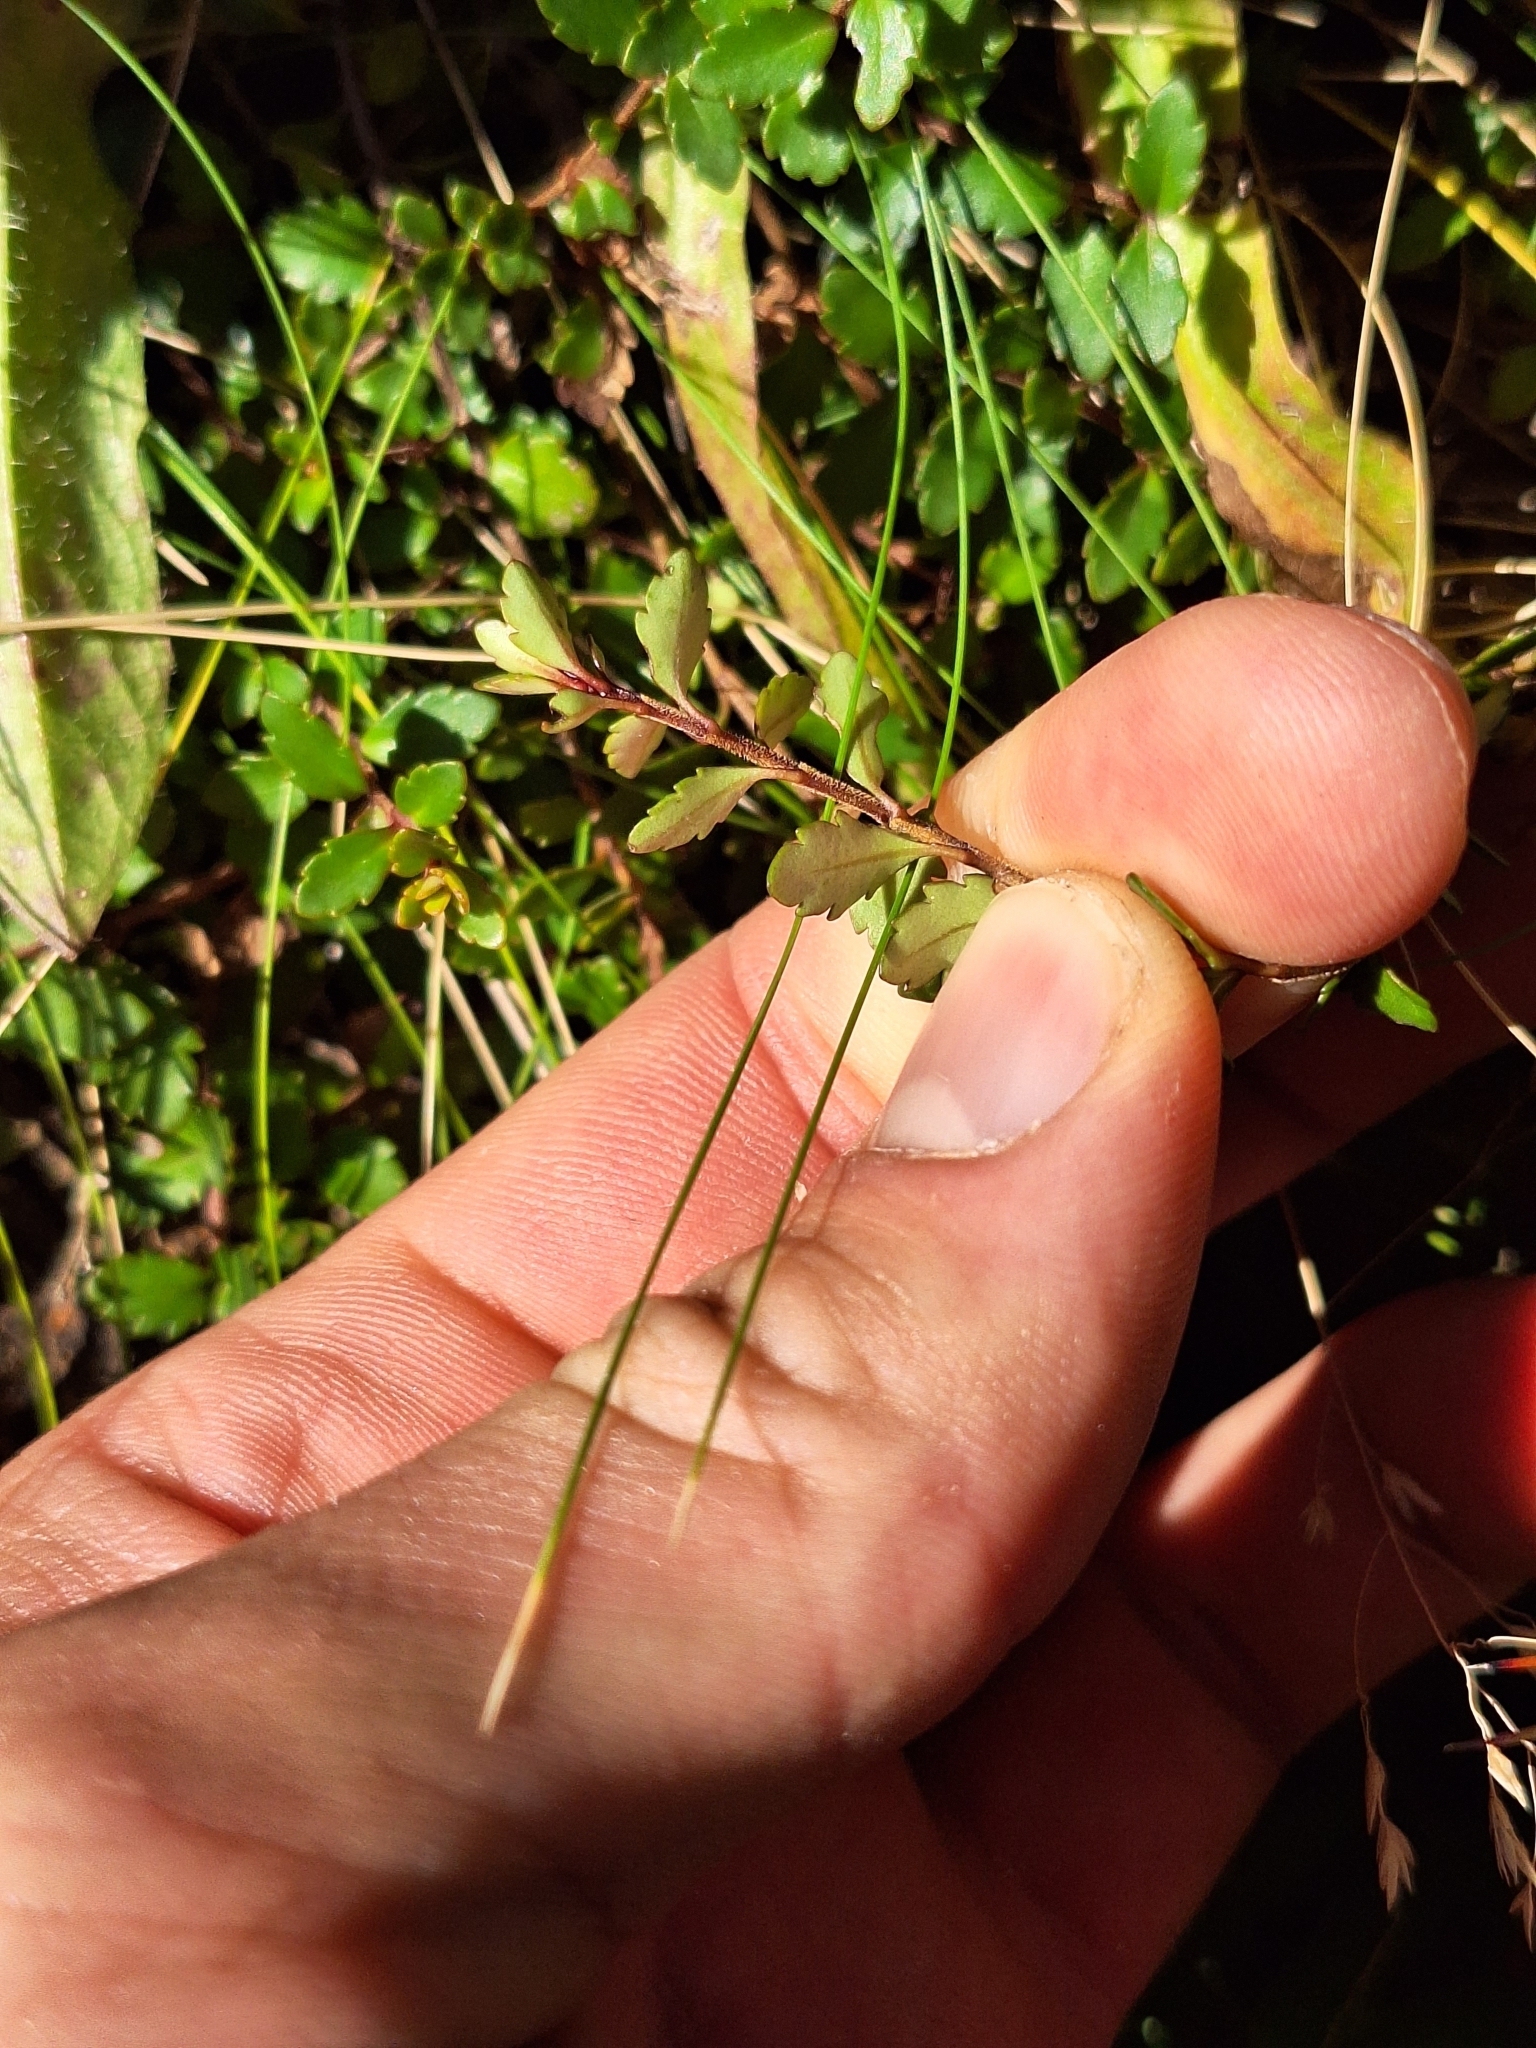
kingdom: Plantae
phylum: Tracheophyta
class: Magnoliopsida
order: Lamiales
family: Plantaginaceae
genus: Veronica
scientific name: Veronica lyallii
